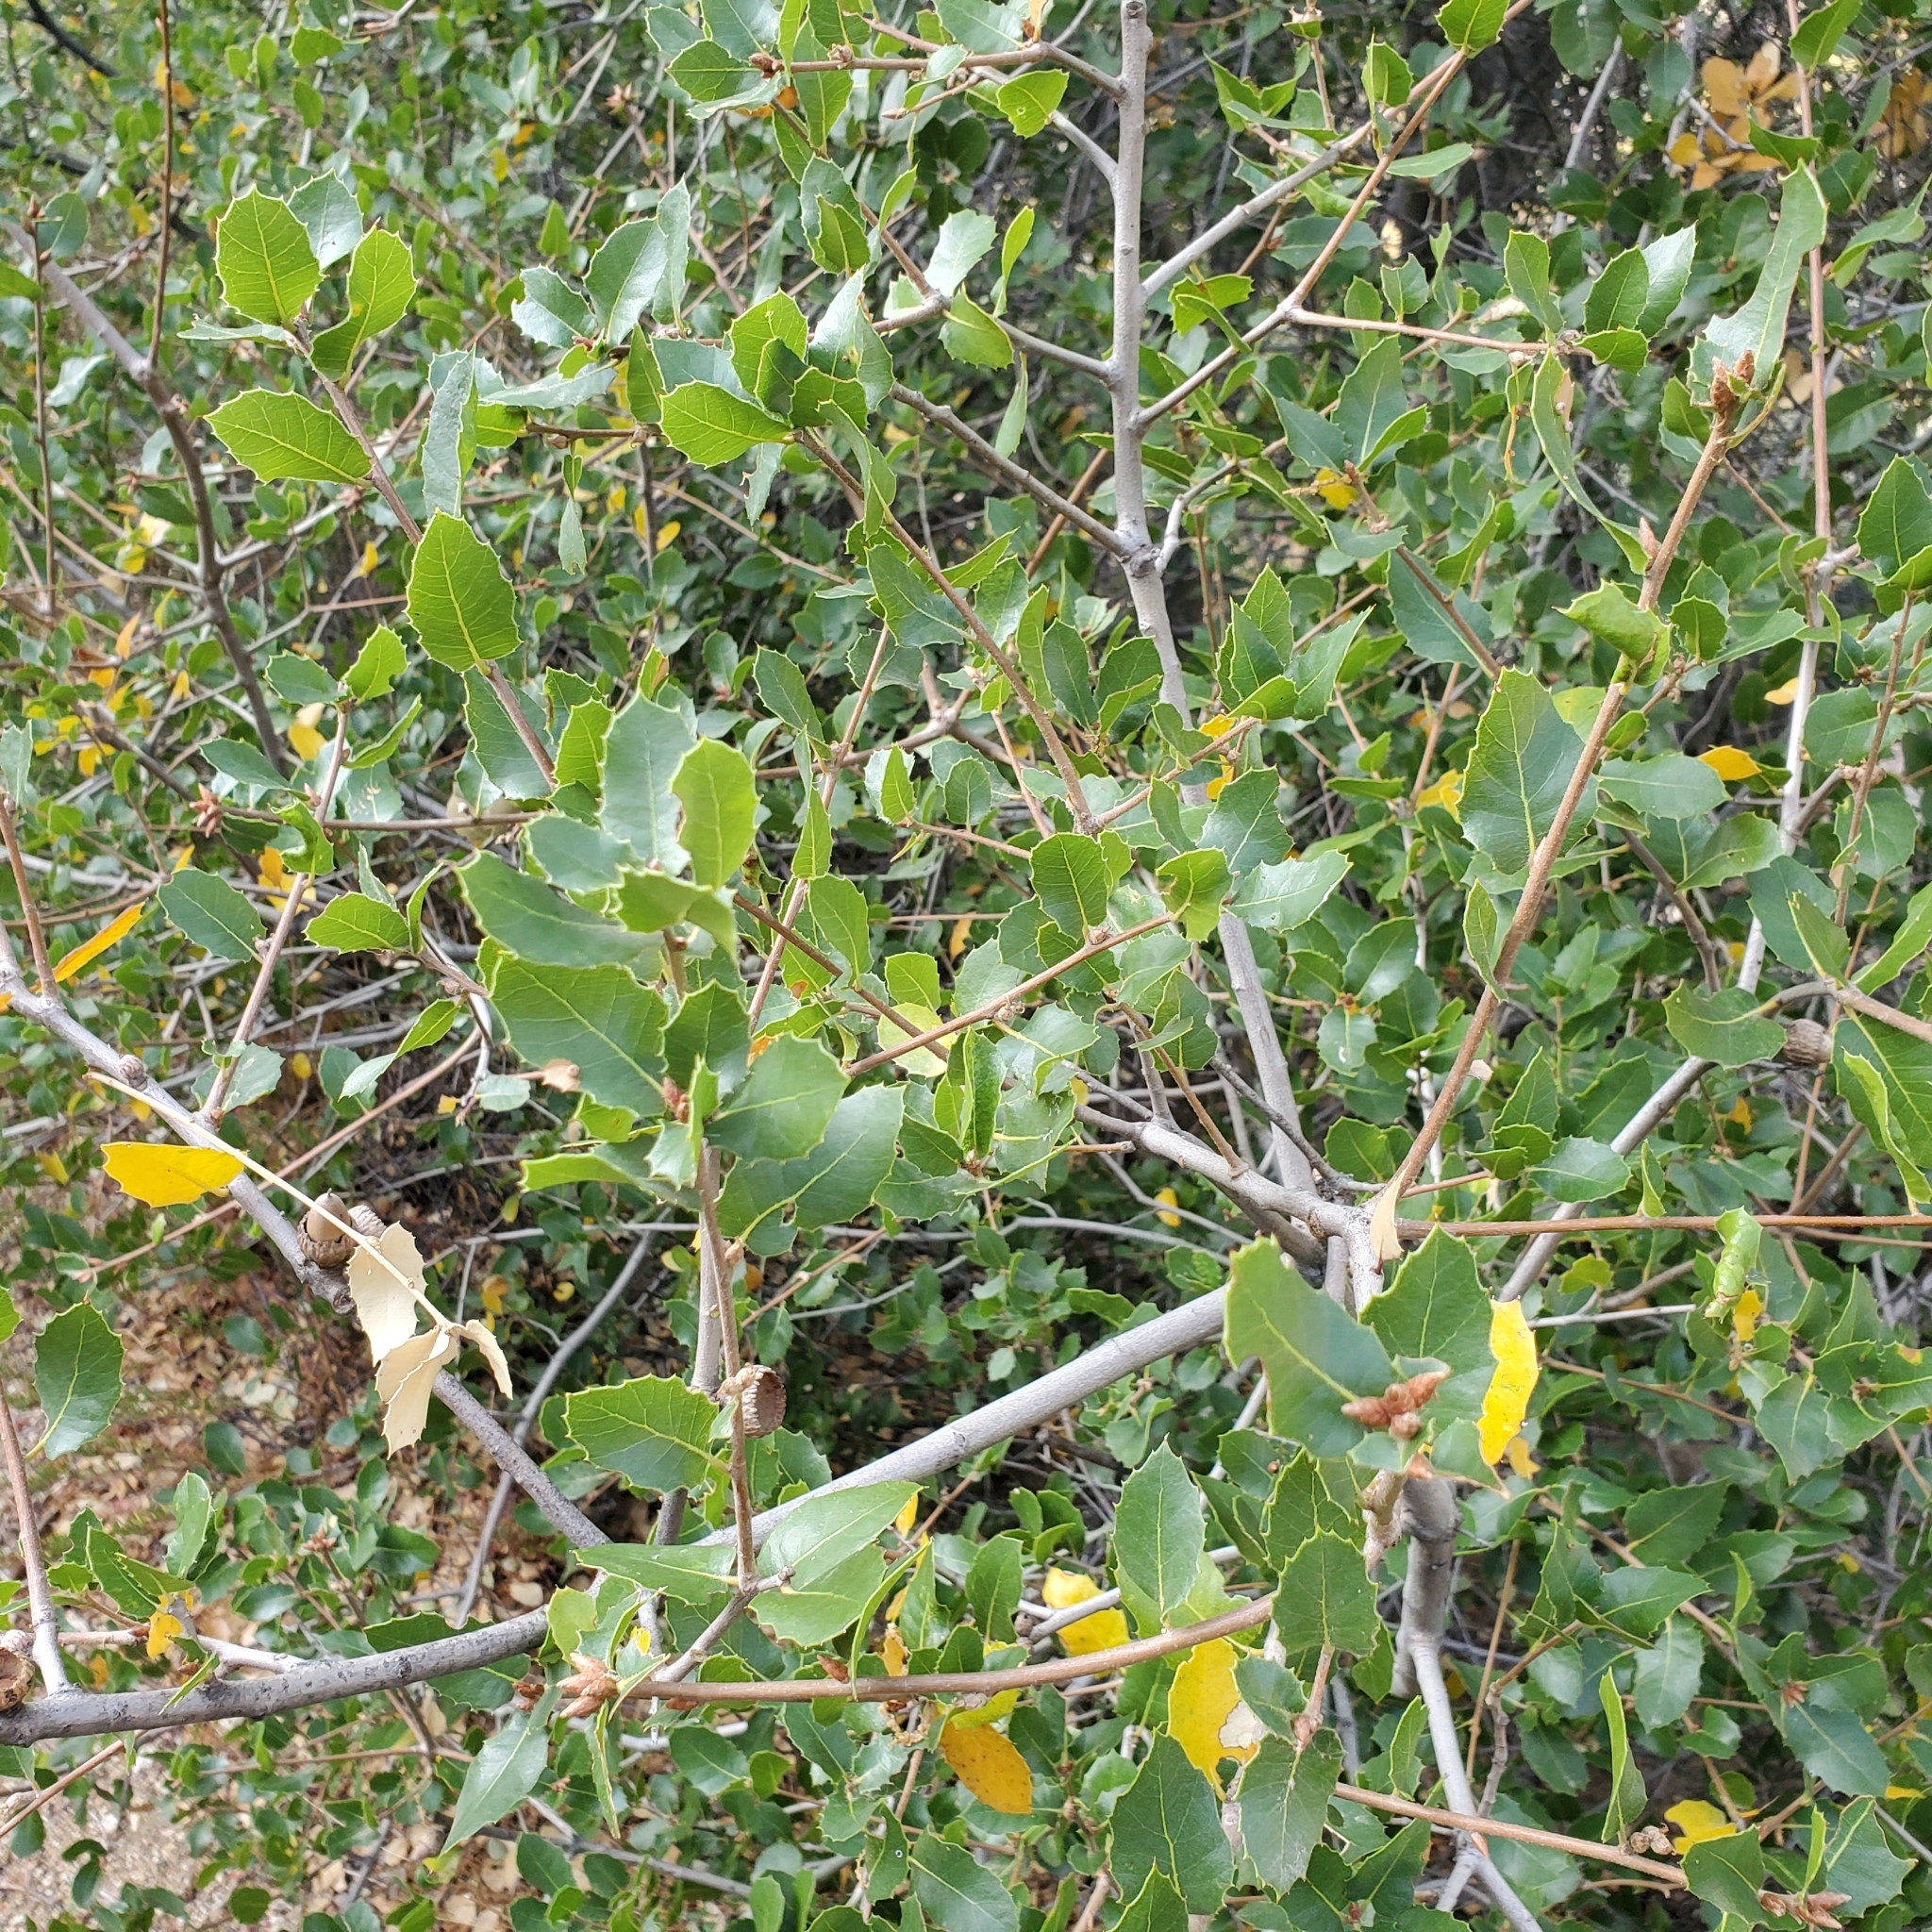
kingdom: Plantae
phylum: Tracheophyta
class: Magnoliopsida
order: Fagales
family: Fagaceae
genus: Quercus
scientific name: Quercus wislizeni
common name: Interior live oak
